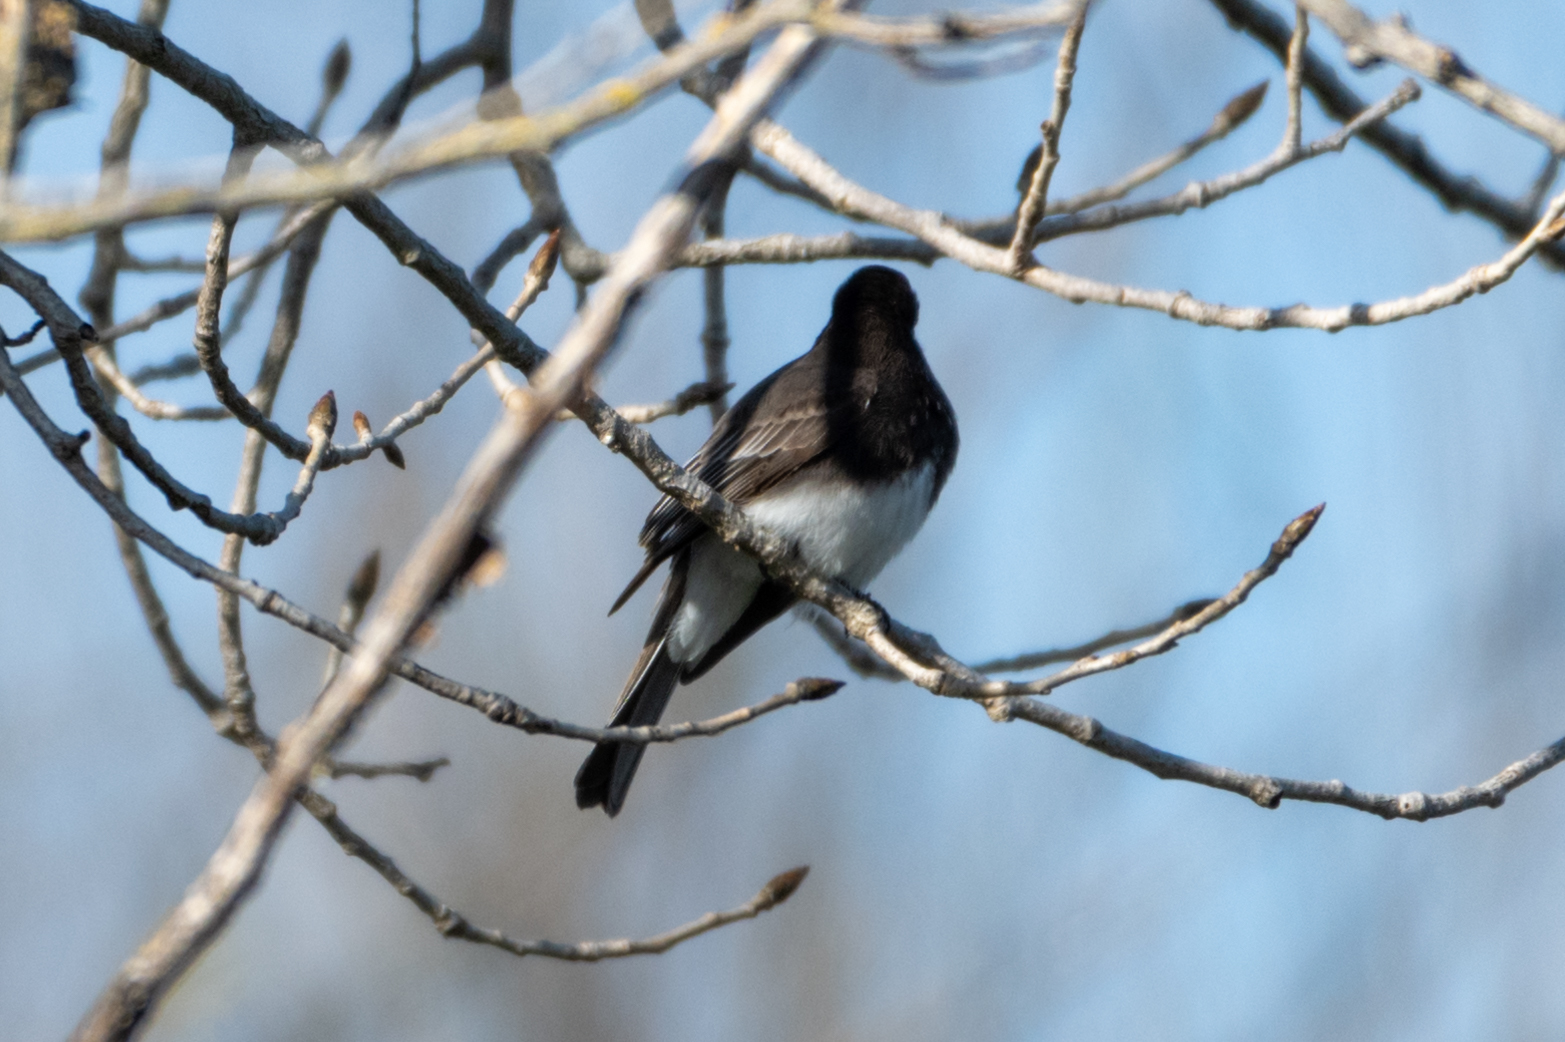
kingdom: Animalia
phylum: Chordata
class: Aves
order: Passeriformes
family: Tyrannidae
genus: Sayornis
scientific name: Sayornis nigricans
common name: Black phoebe
